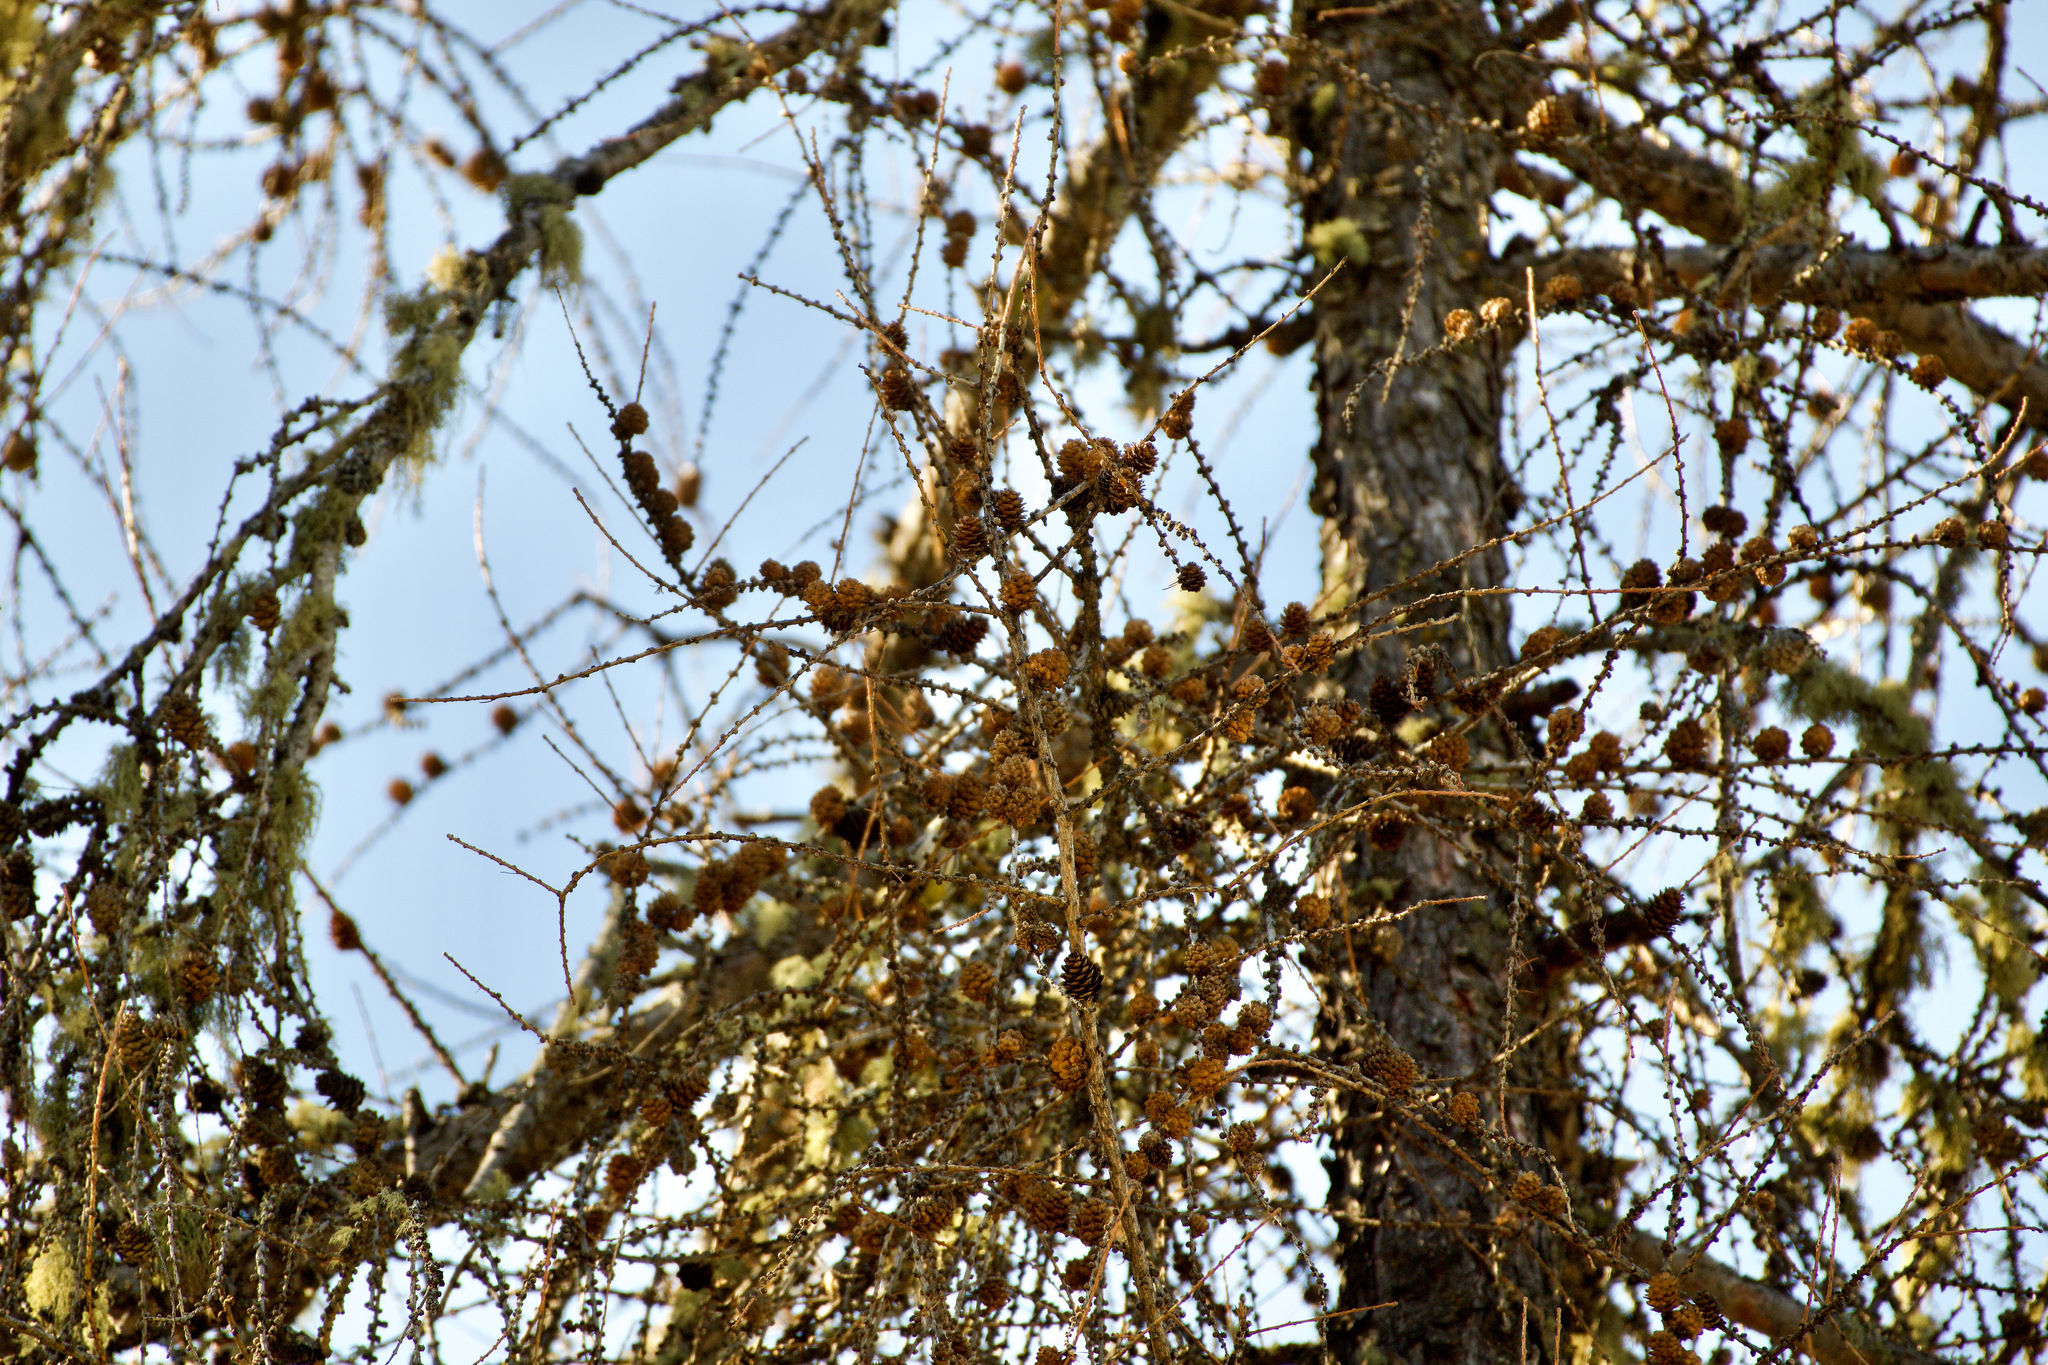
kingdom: Plantae
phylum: Tracheophyta
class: Pinopsida
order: Pinales
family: Pinaceae
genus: Larix
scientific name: Larix decidua
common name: European larch
